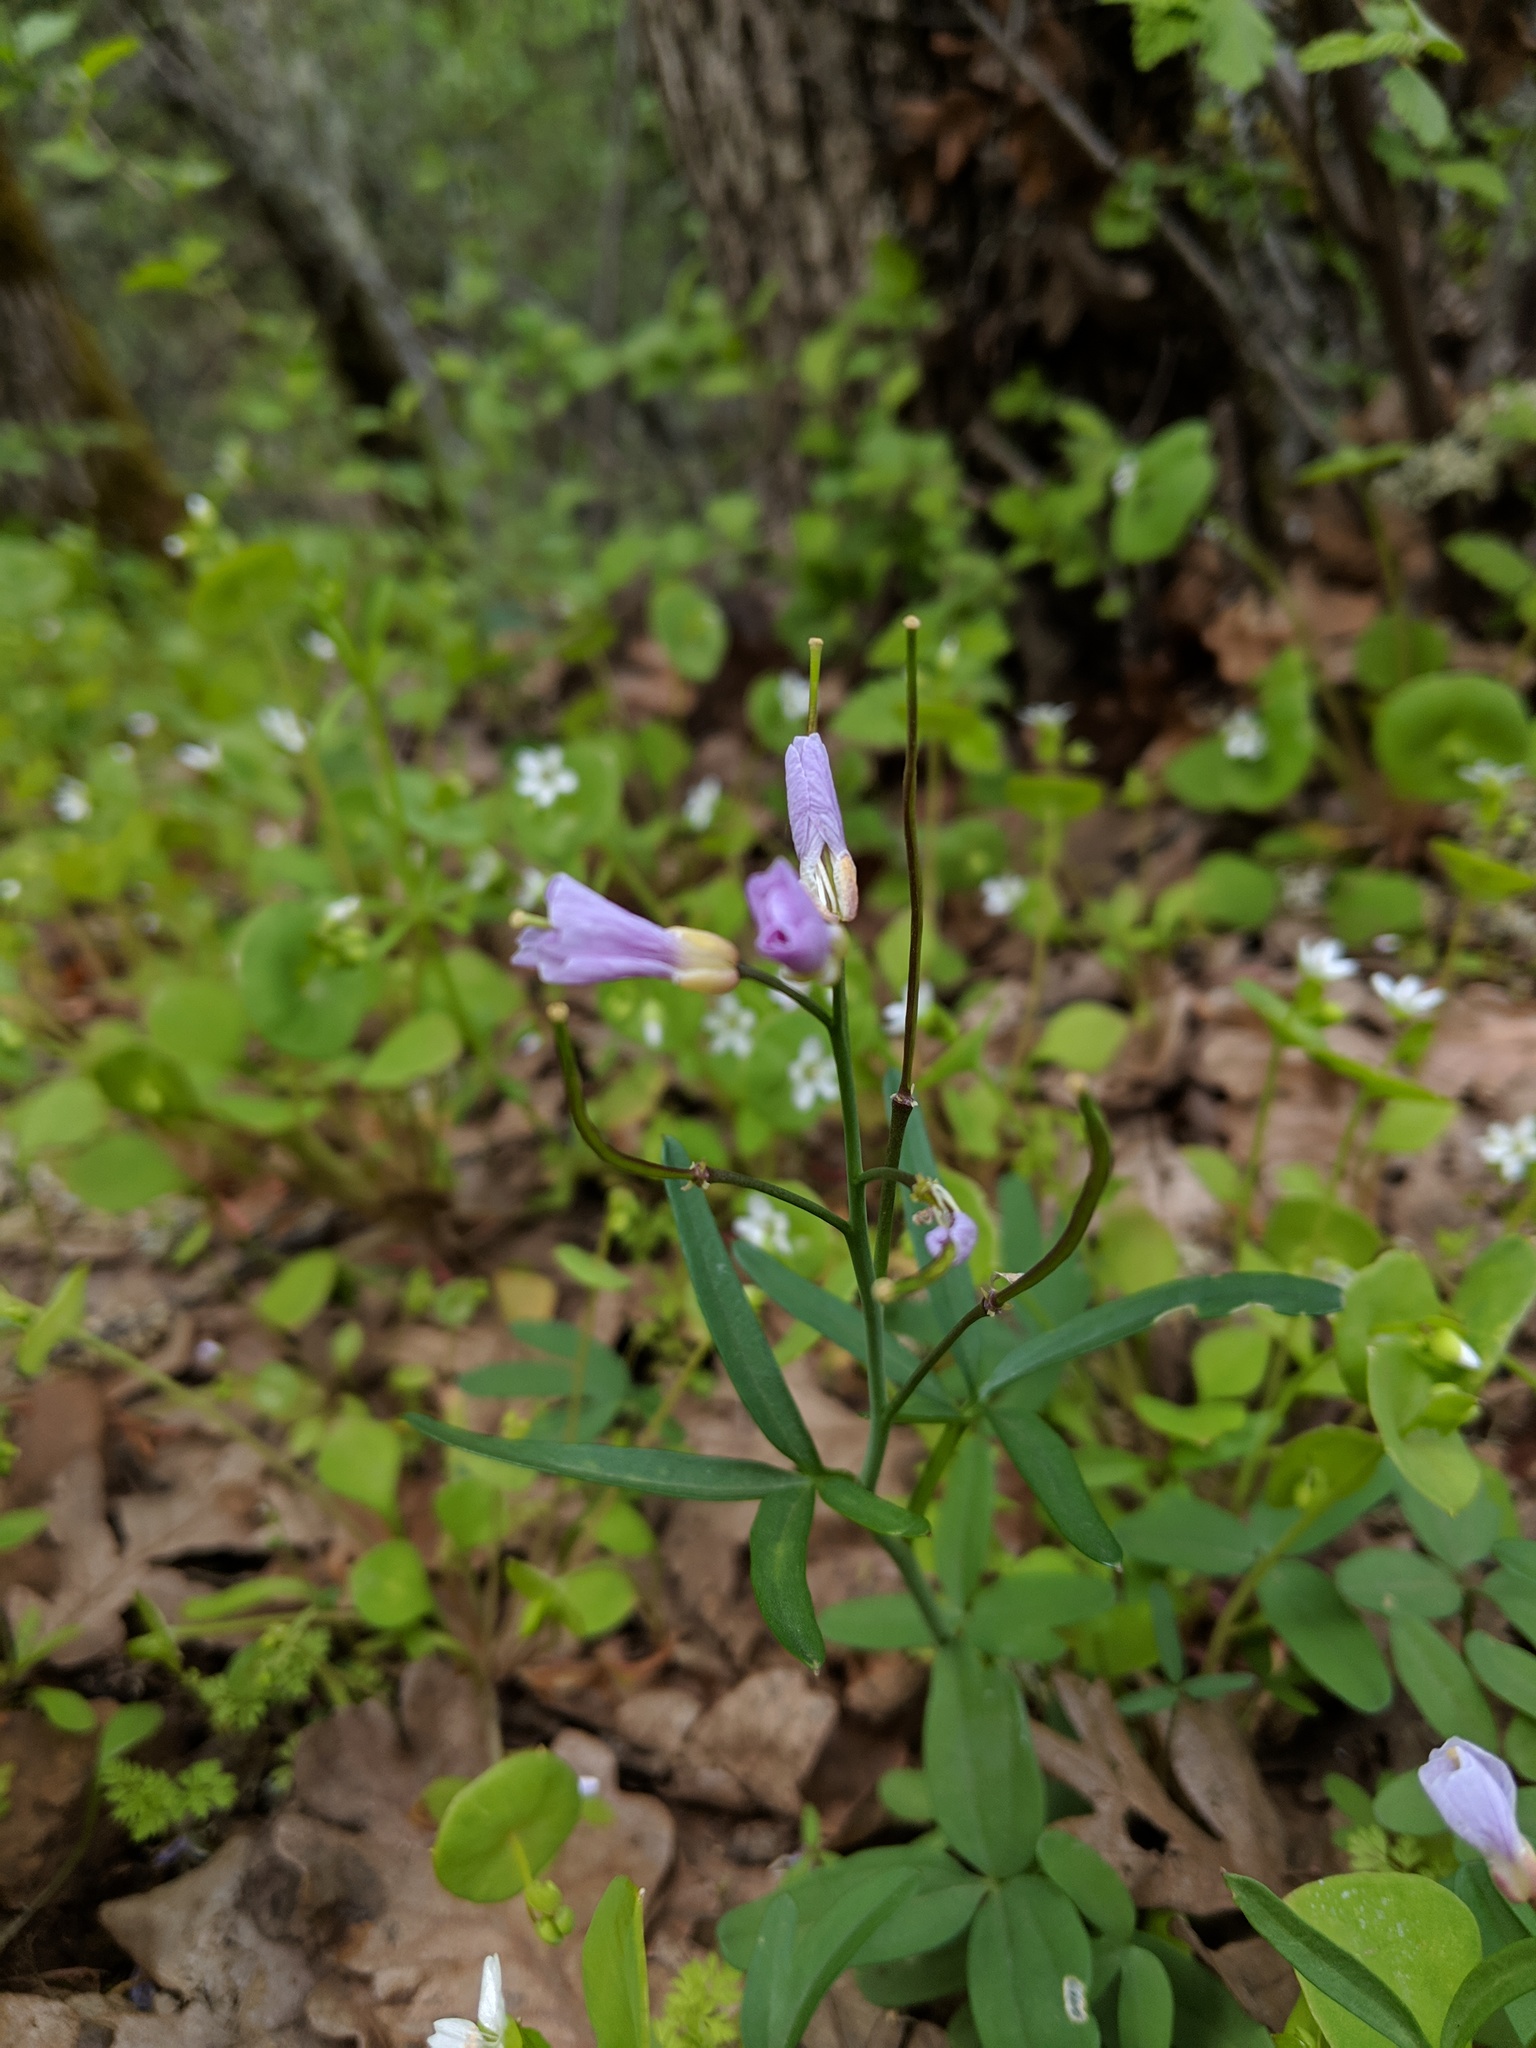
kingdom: Plantae
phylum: Tracheophyta
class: Magnoliopsida
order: Brassicales
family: Brassicaceae
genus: Cardamine
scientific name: Cardamine nuttallii
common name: Nuttall's toothwort
